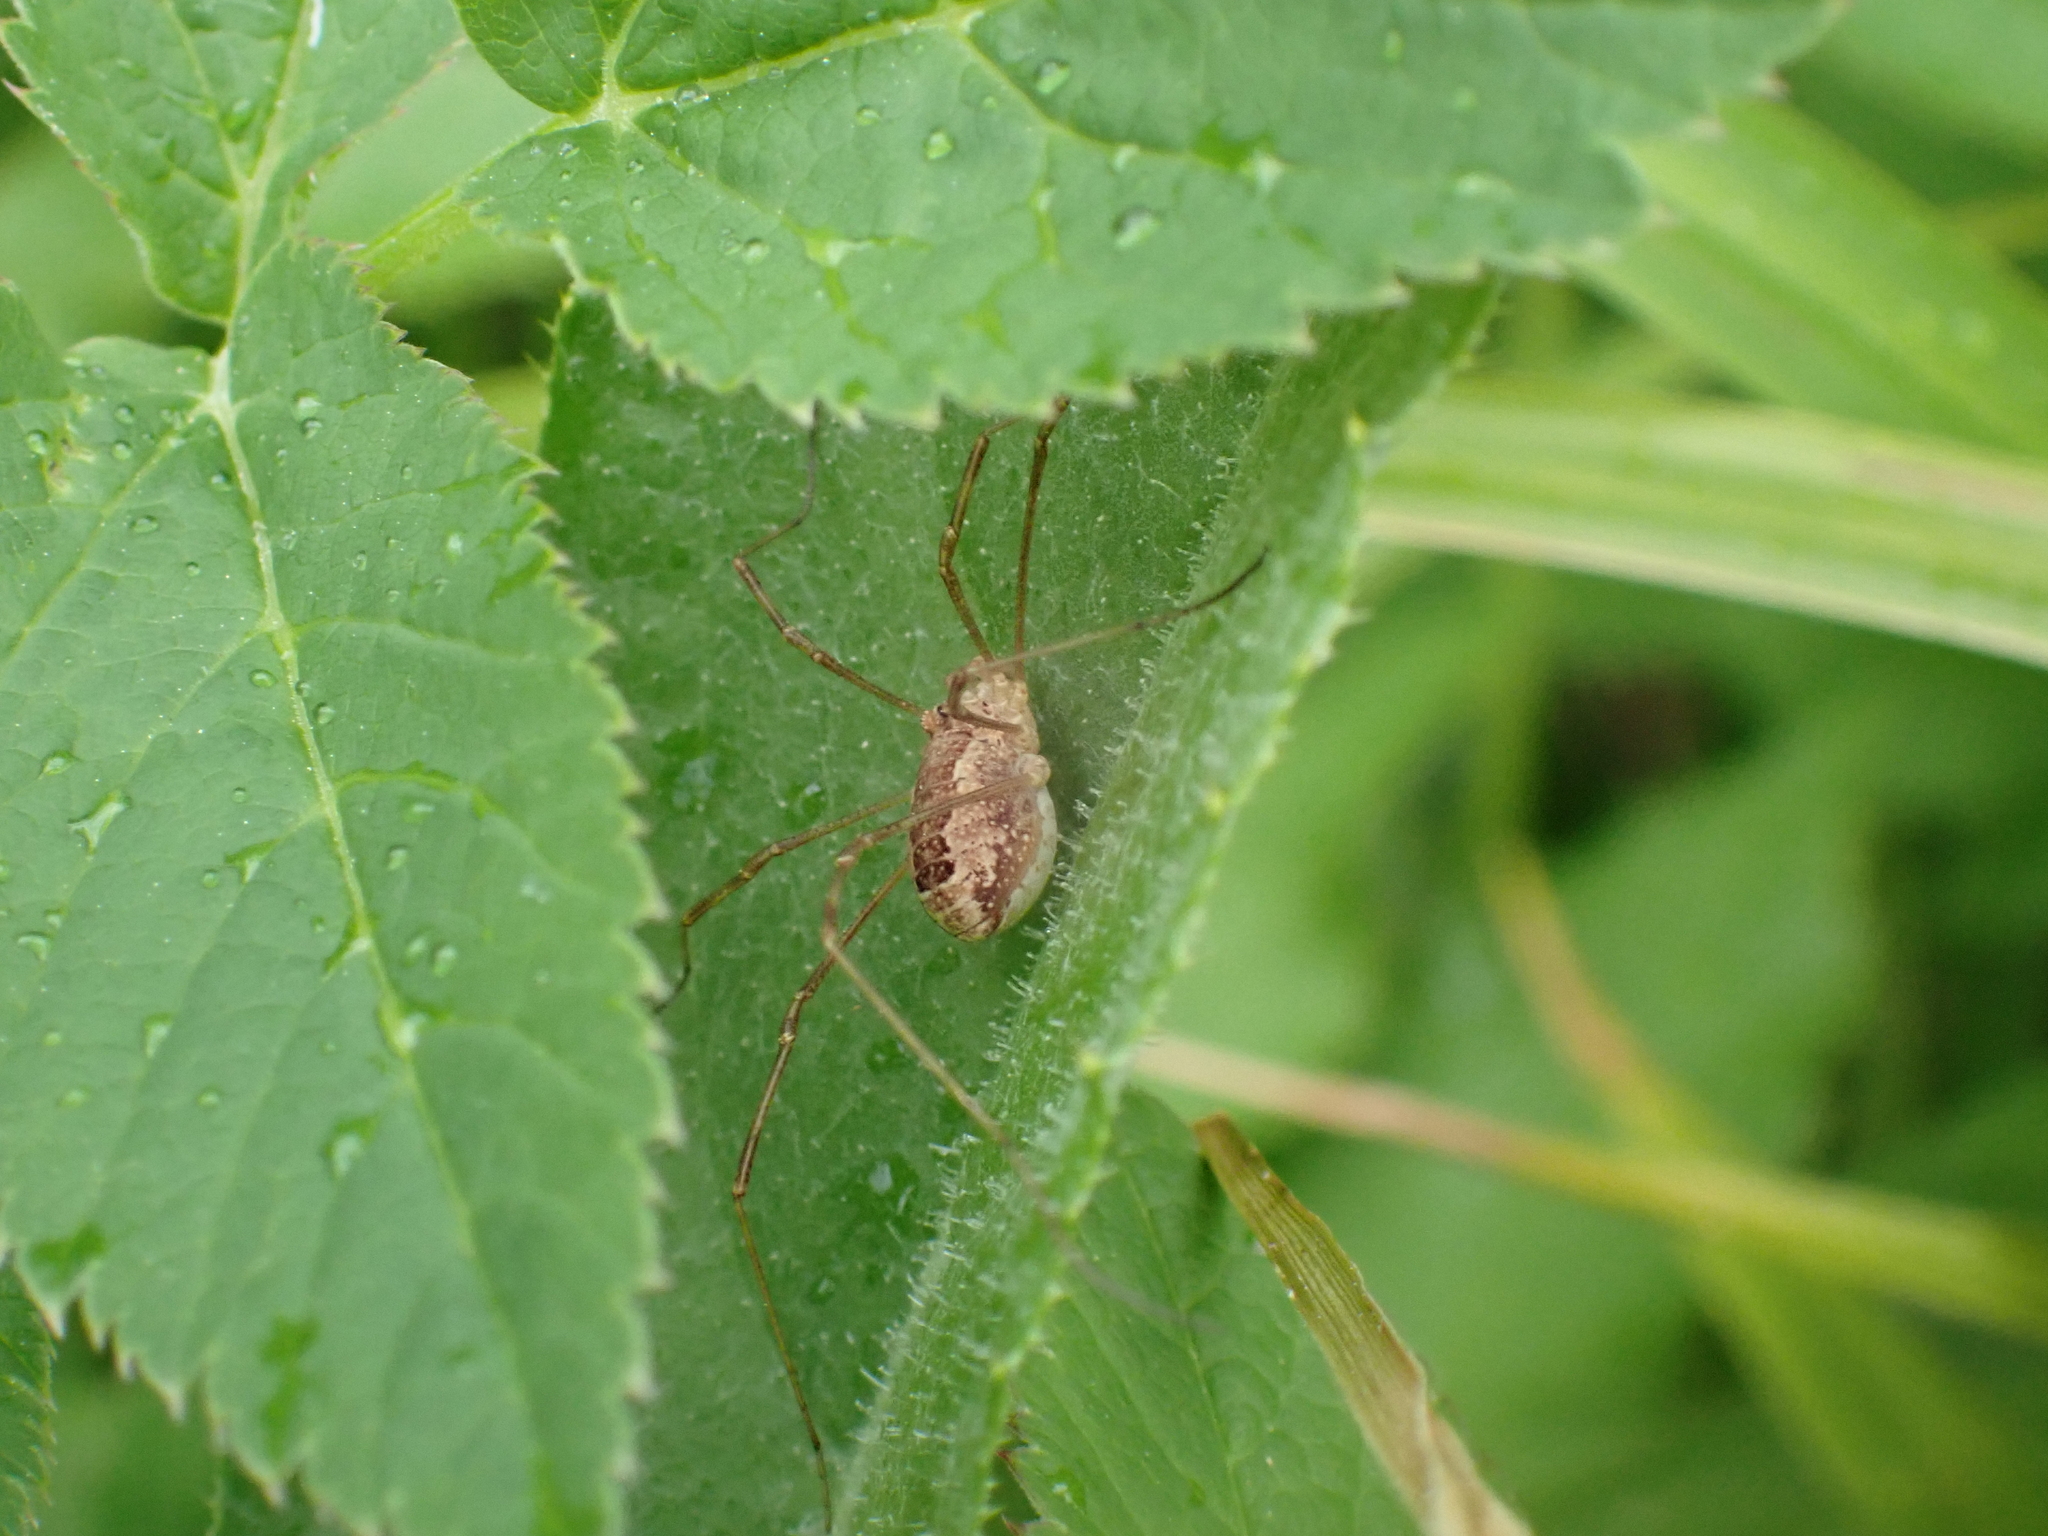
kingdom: Animalia
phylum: Arthropoda
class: Arachnida
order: Opiliones
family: Phalangiidae
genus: Rilaena
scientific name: Rilaena triangularis
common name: Spring harvestman
